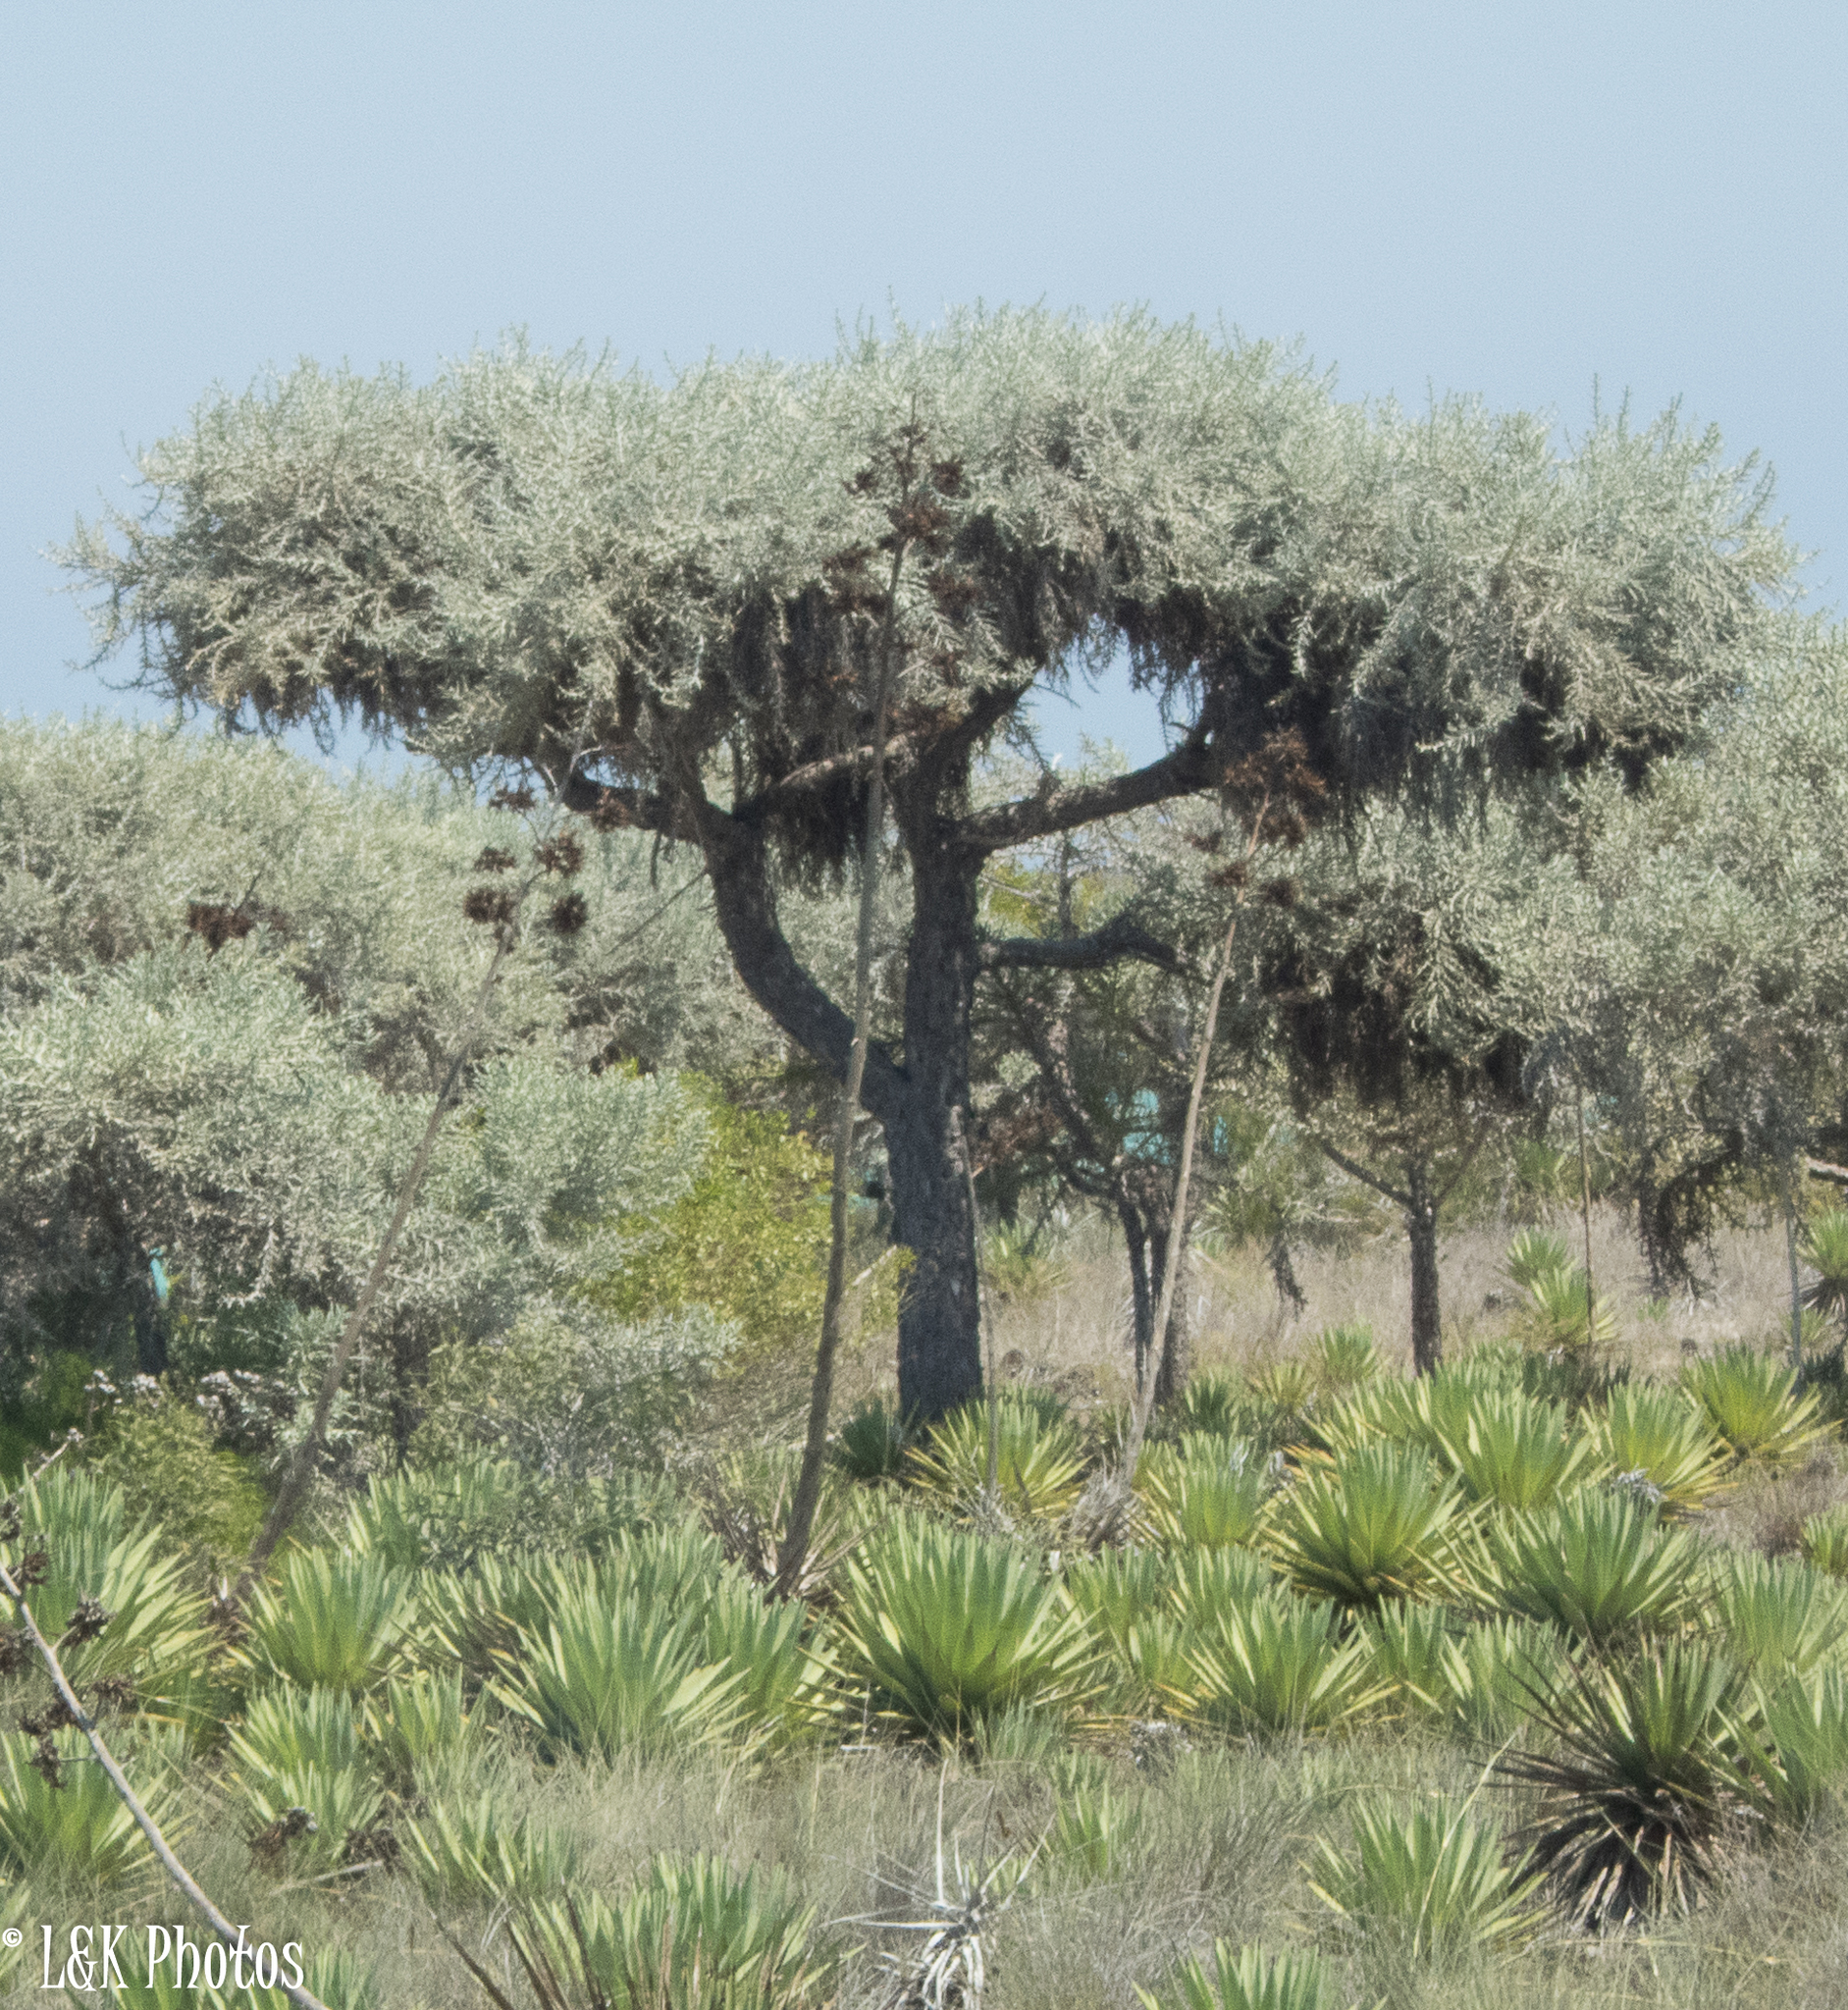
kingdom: Plantae
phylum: Tracheophyta
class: Magnoliopsida
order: Malpighiales
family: Euphorbiaceae
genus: Euphorbia
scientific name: Euphorbia stenoclada
